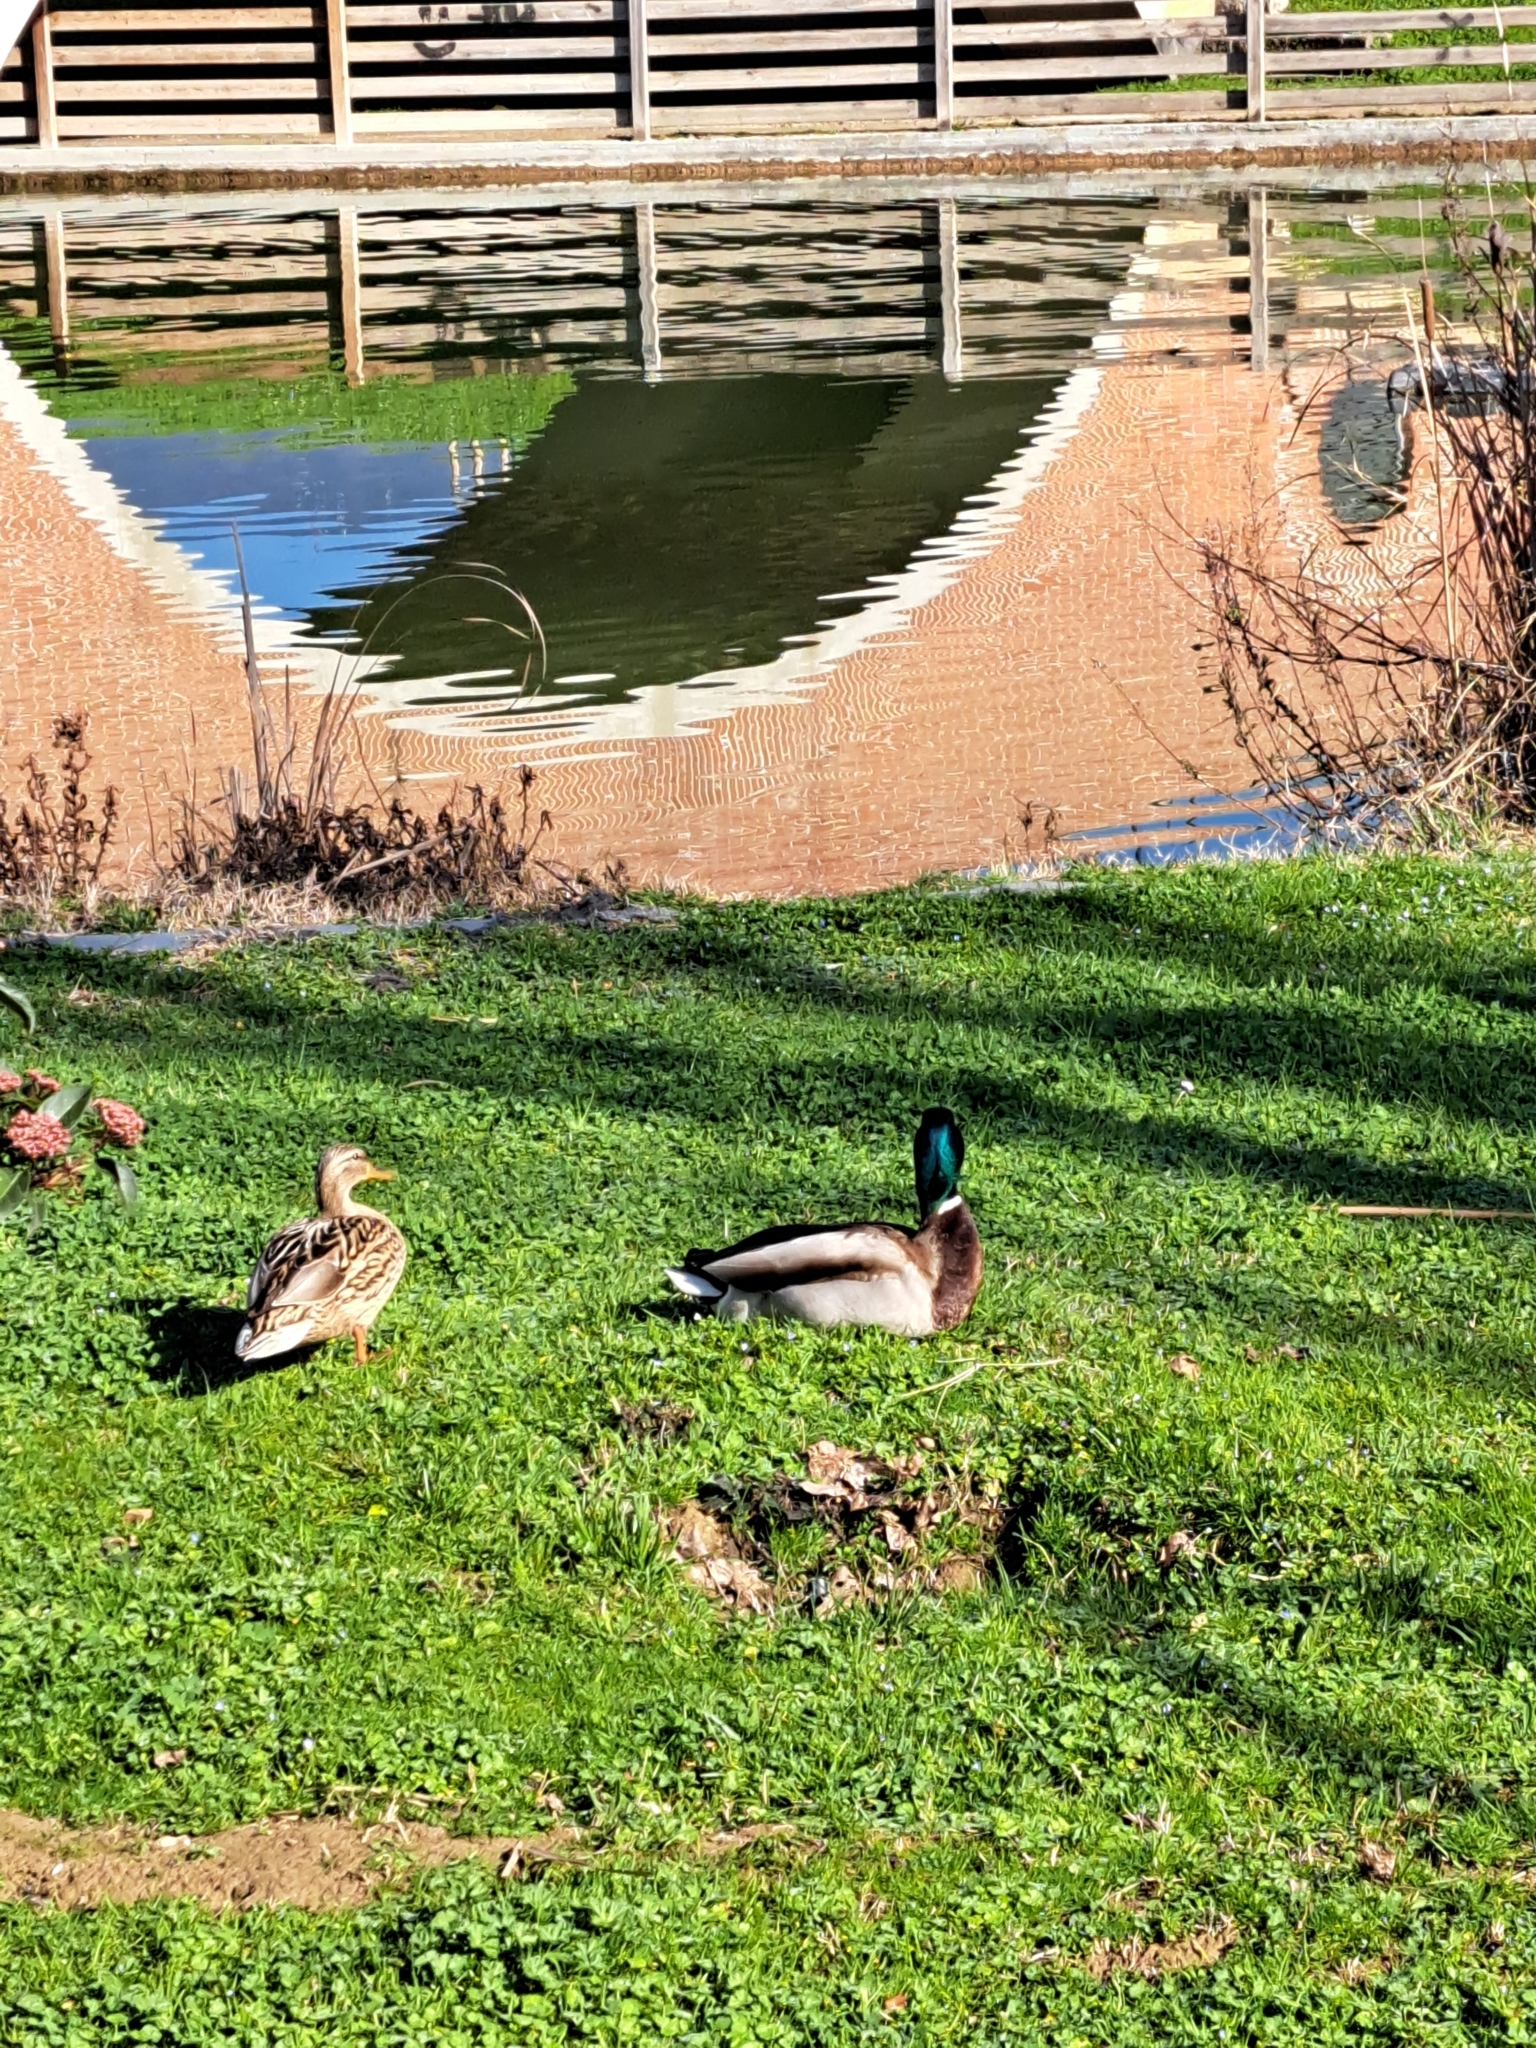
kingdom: Animalia
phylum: Chordata
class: Aves
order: Anseriformes
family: Anatidae
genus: Anas
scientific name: Anas platyrhynchos
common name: Mallard
